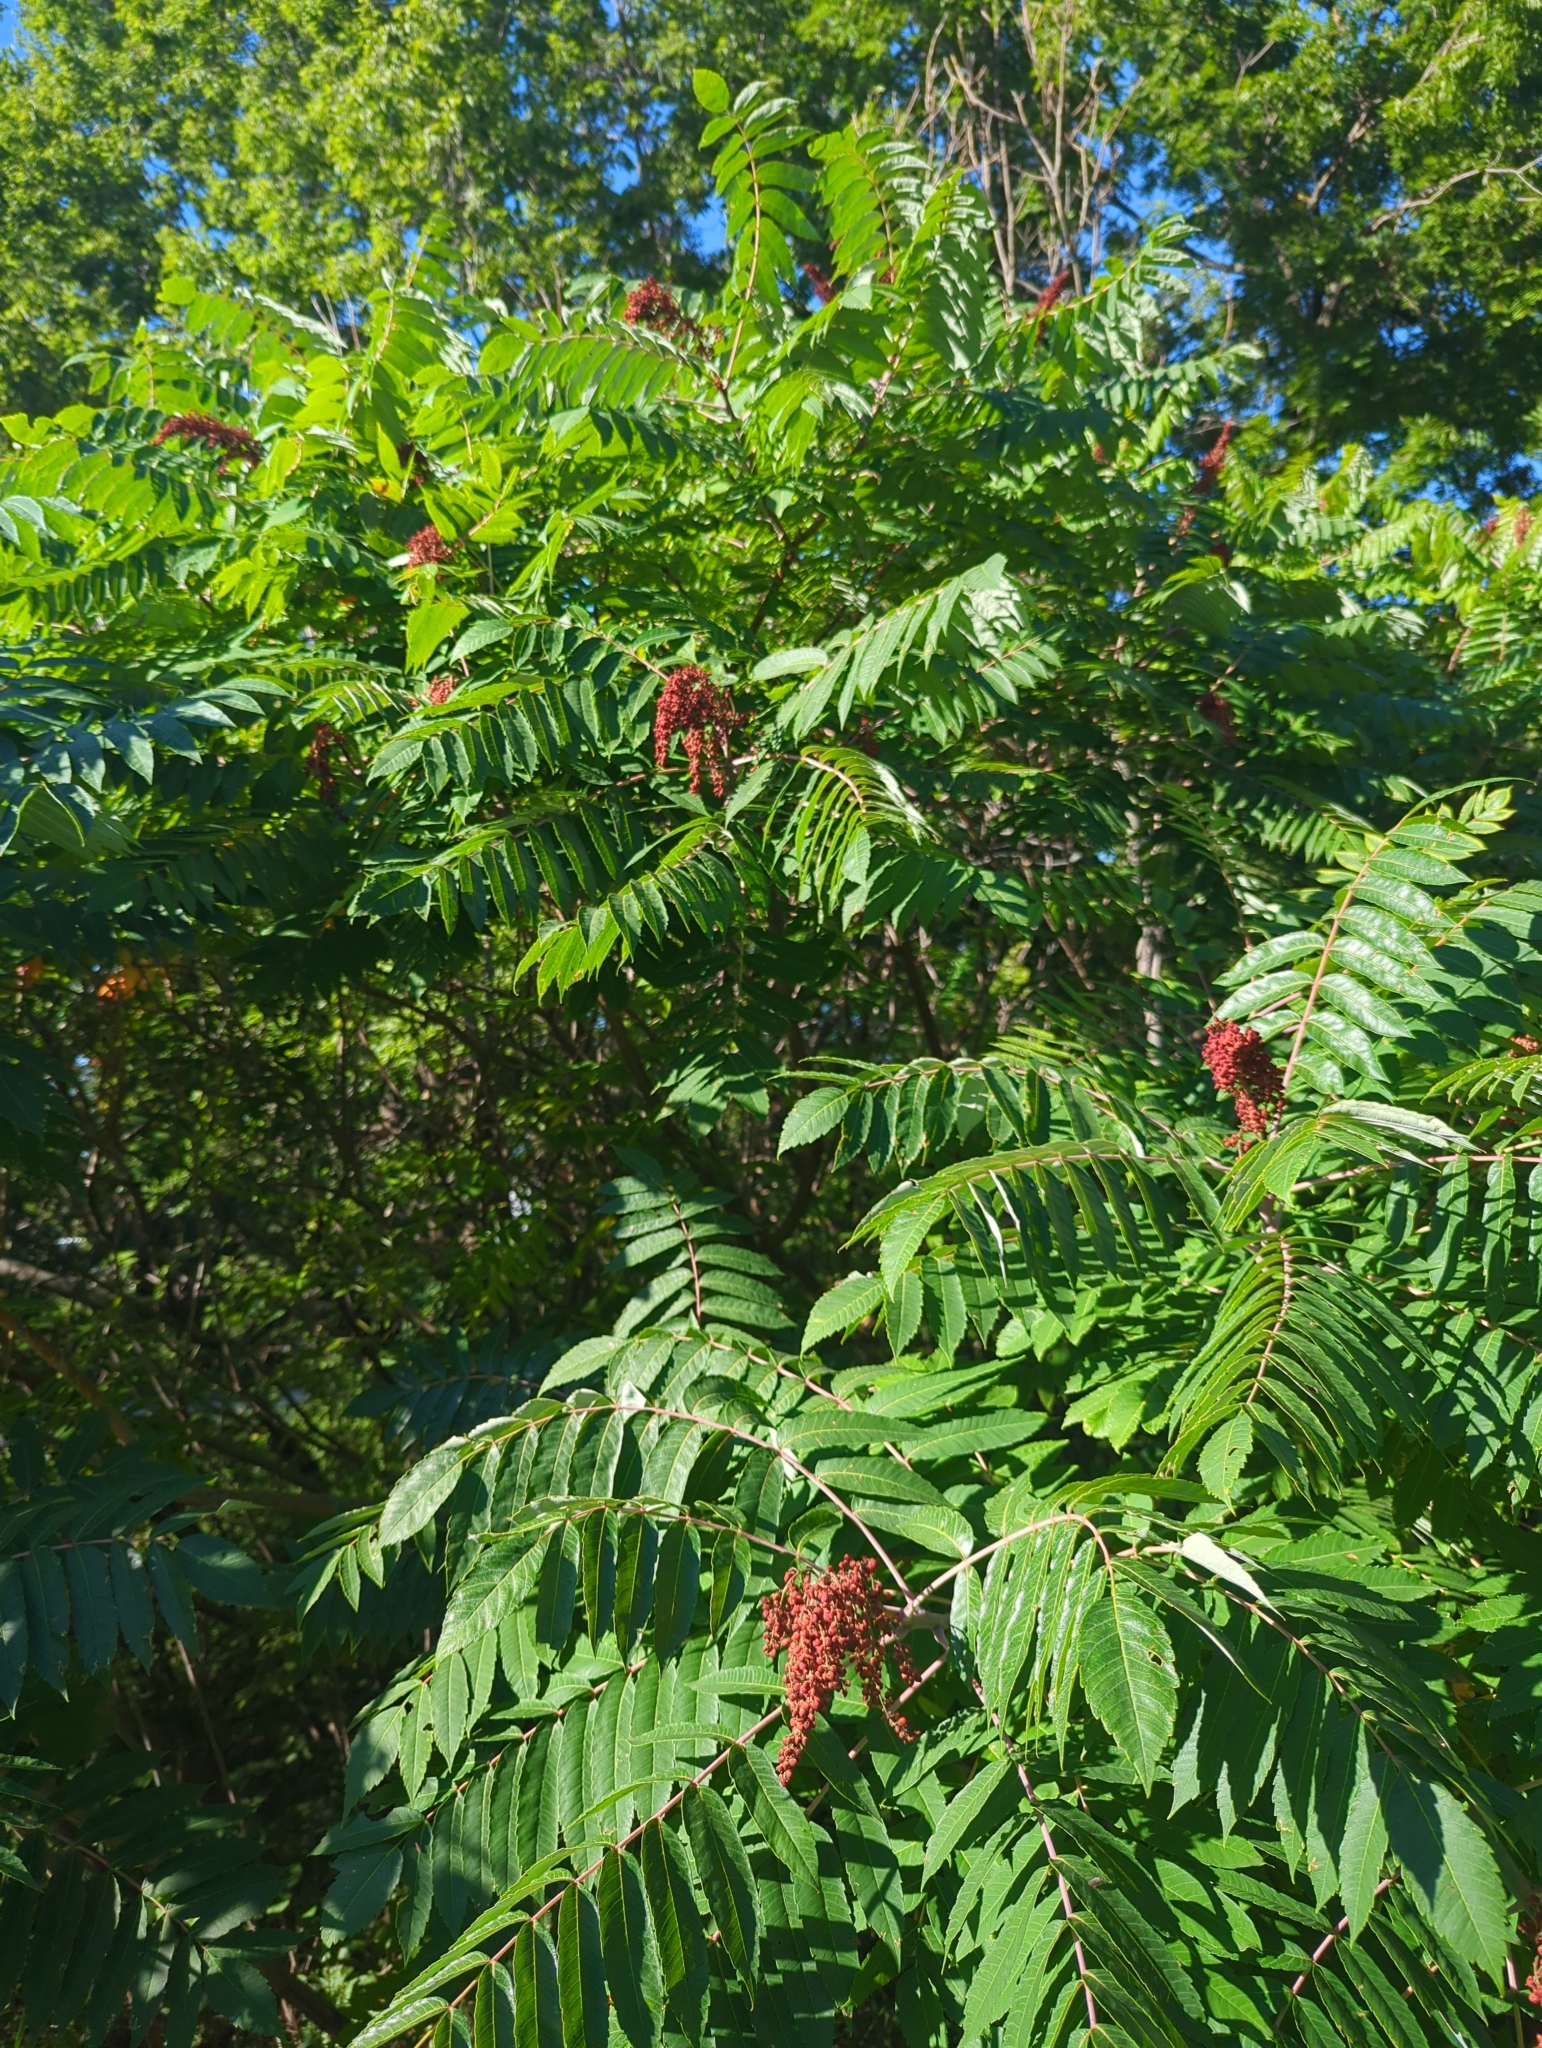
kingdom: Plantae
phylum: Tracheophyta
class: Magnoliopsida
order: Sapindales
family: Anacardiaceae
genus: Rhus
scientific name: Rhus glabra
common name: Scarlet sumac
